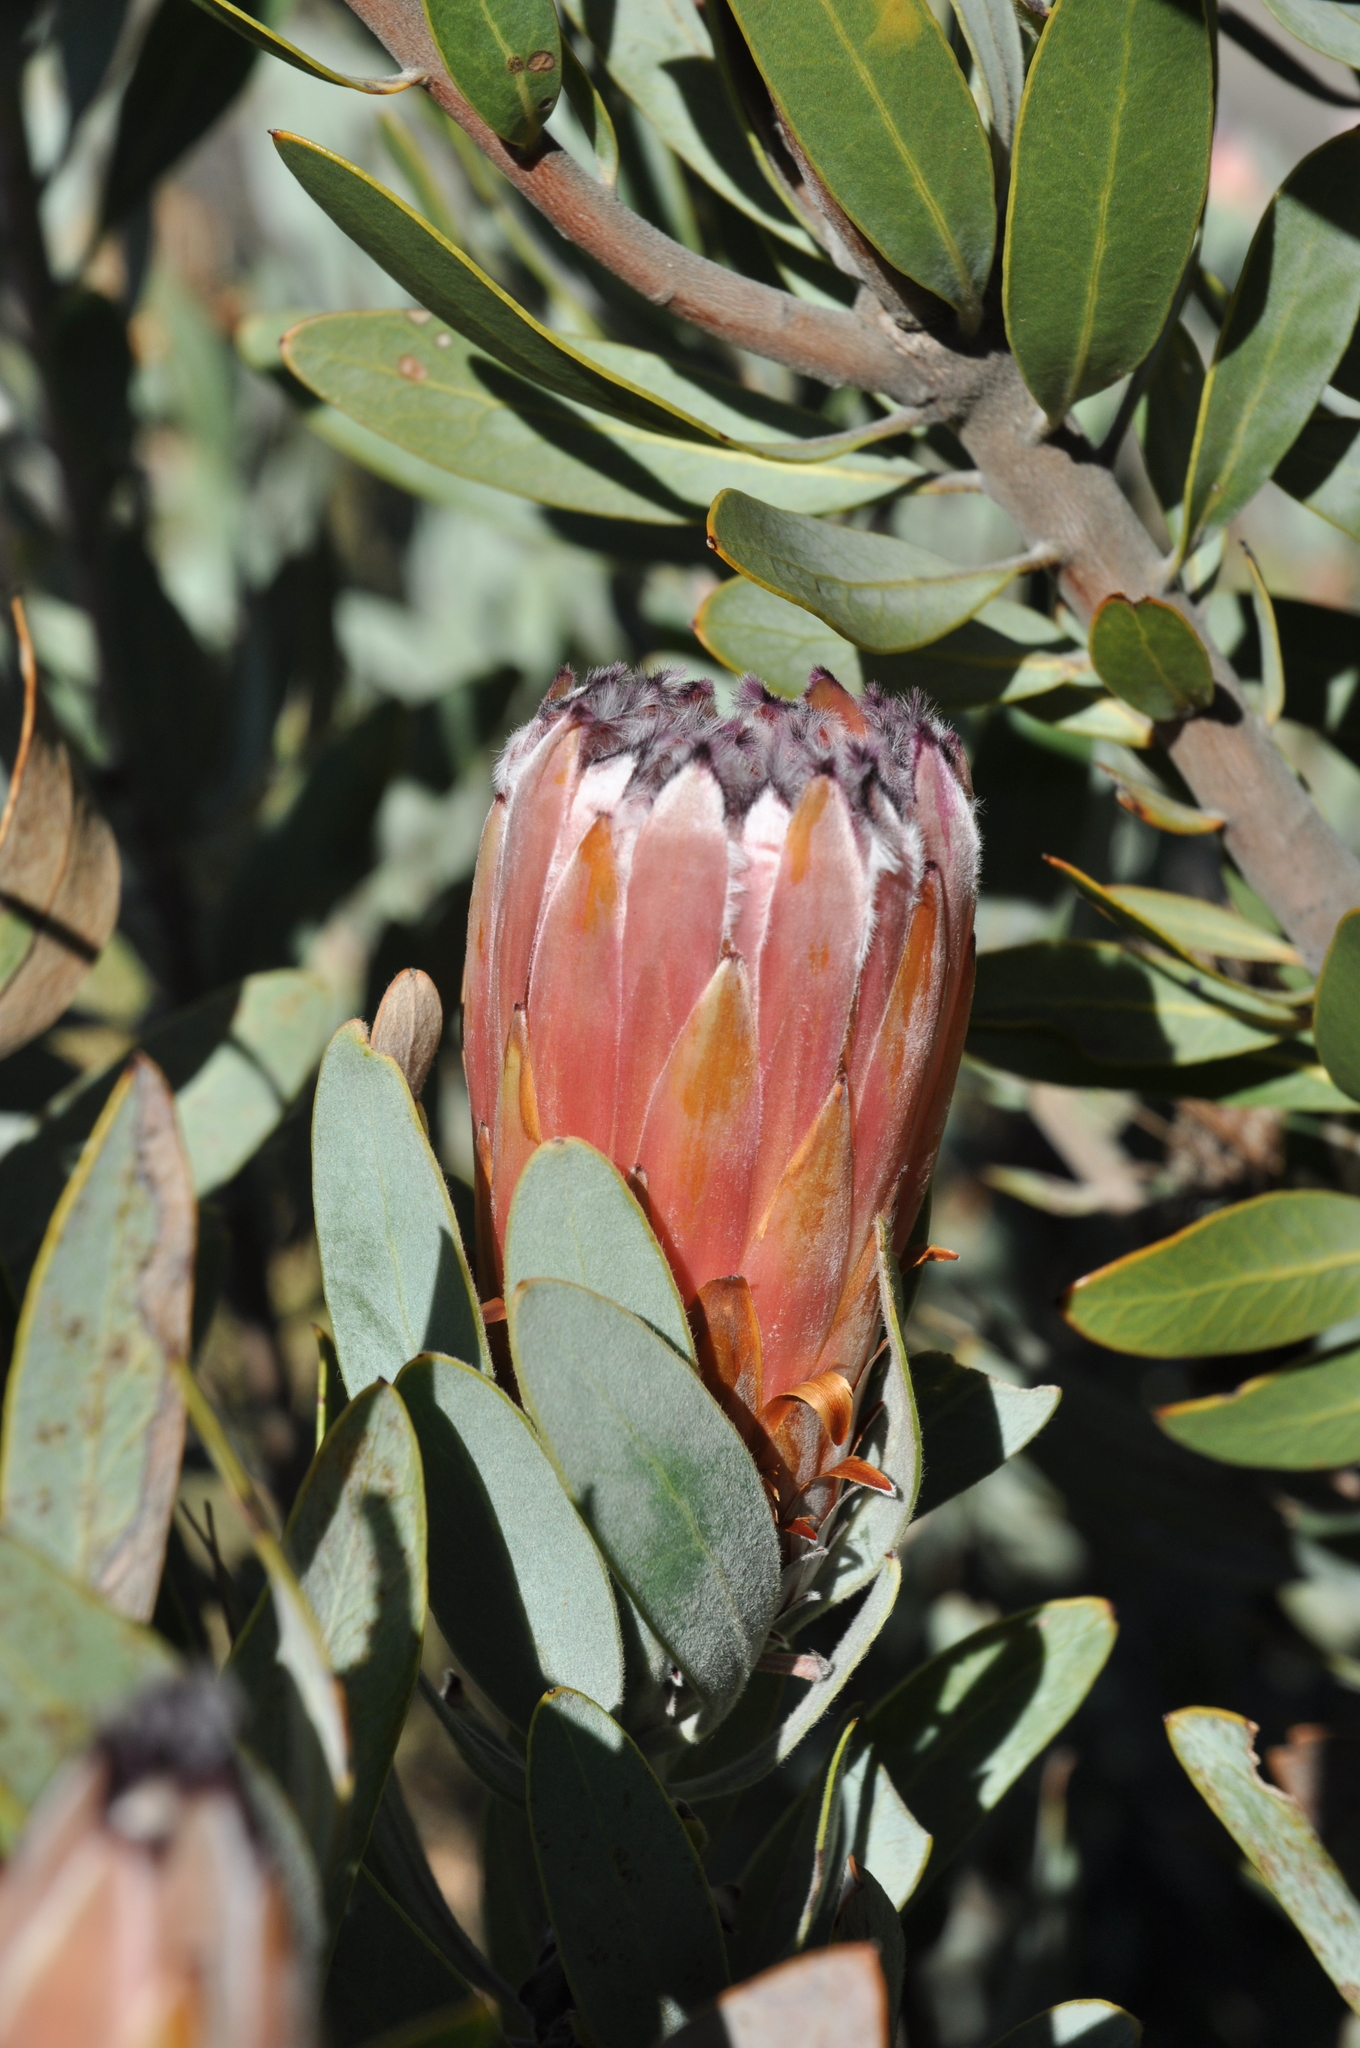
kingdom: Plantae
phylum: Tracheophyta
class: Magnoliopsida
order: Proteales
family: Proteaceae
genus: Protea
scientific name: Protea laurifolia
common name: Grey-leaf sugarbsh
